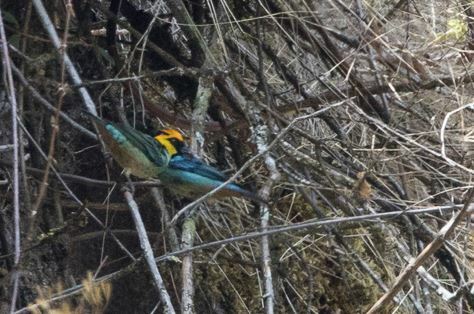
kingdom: Animalia
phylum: Chordata
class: Aves
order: Passeriformes
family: Thraupidae
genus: Tangara
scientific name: Tangara xanthocephala
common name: Saffron-crowned tanager
